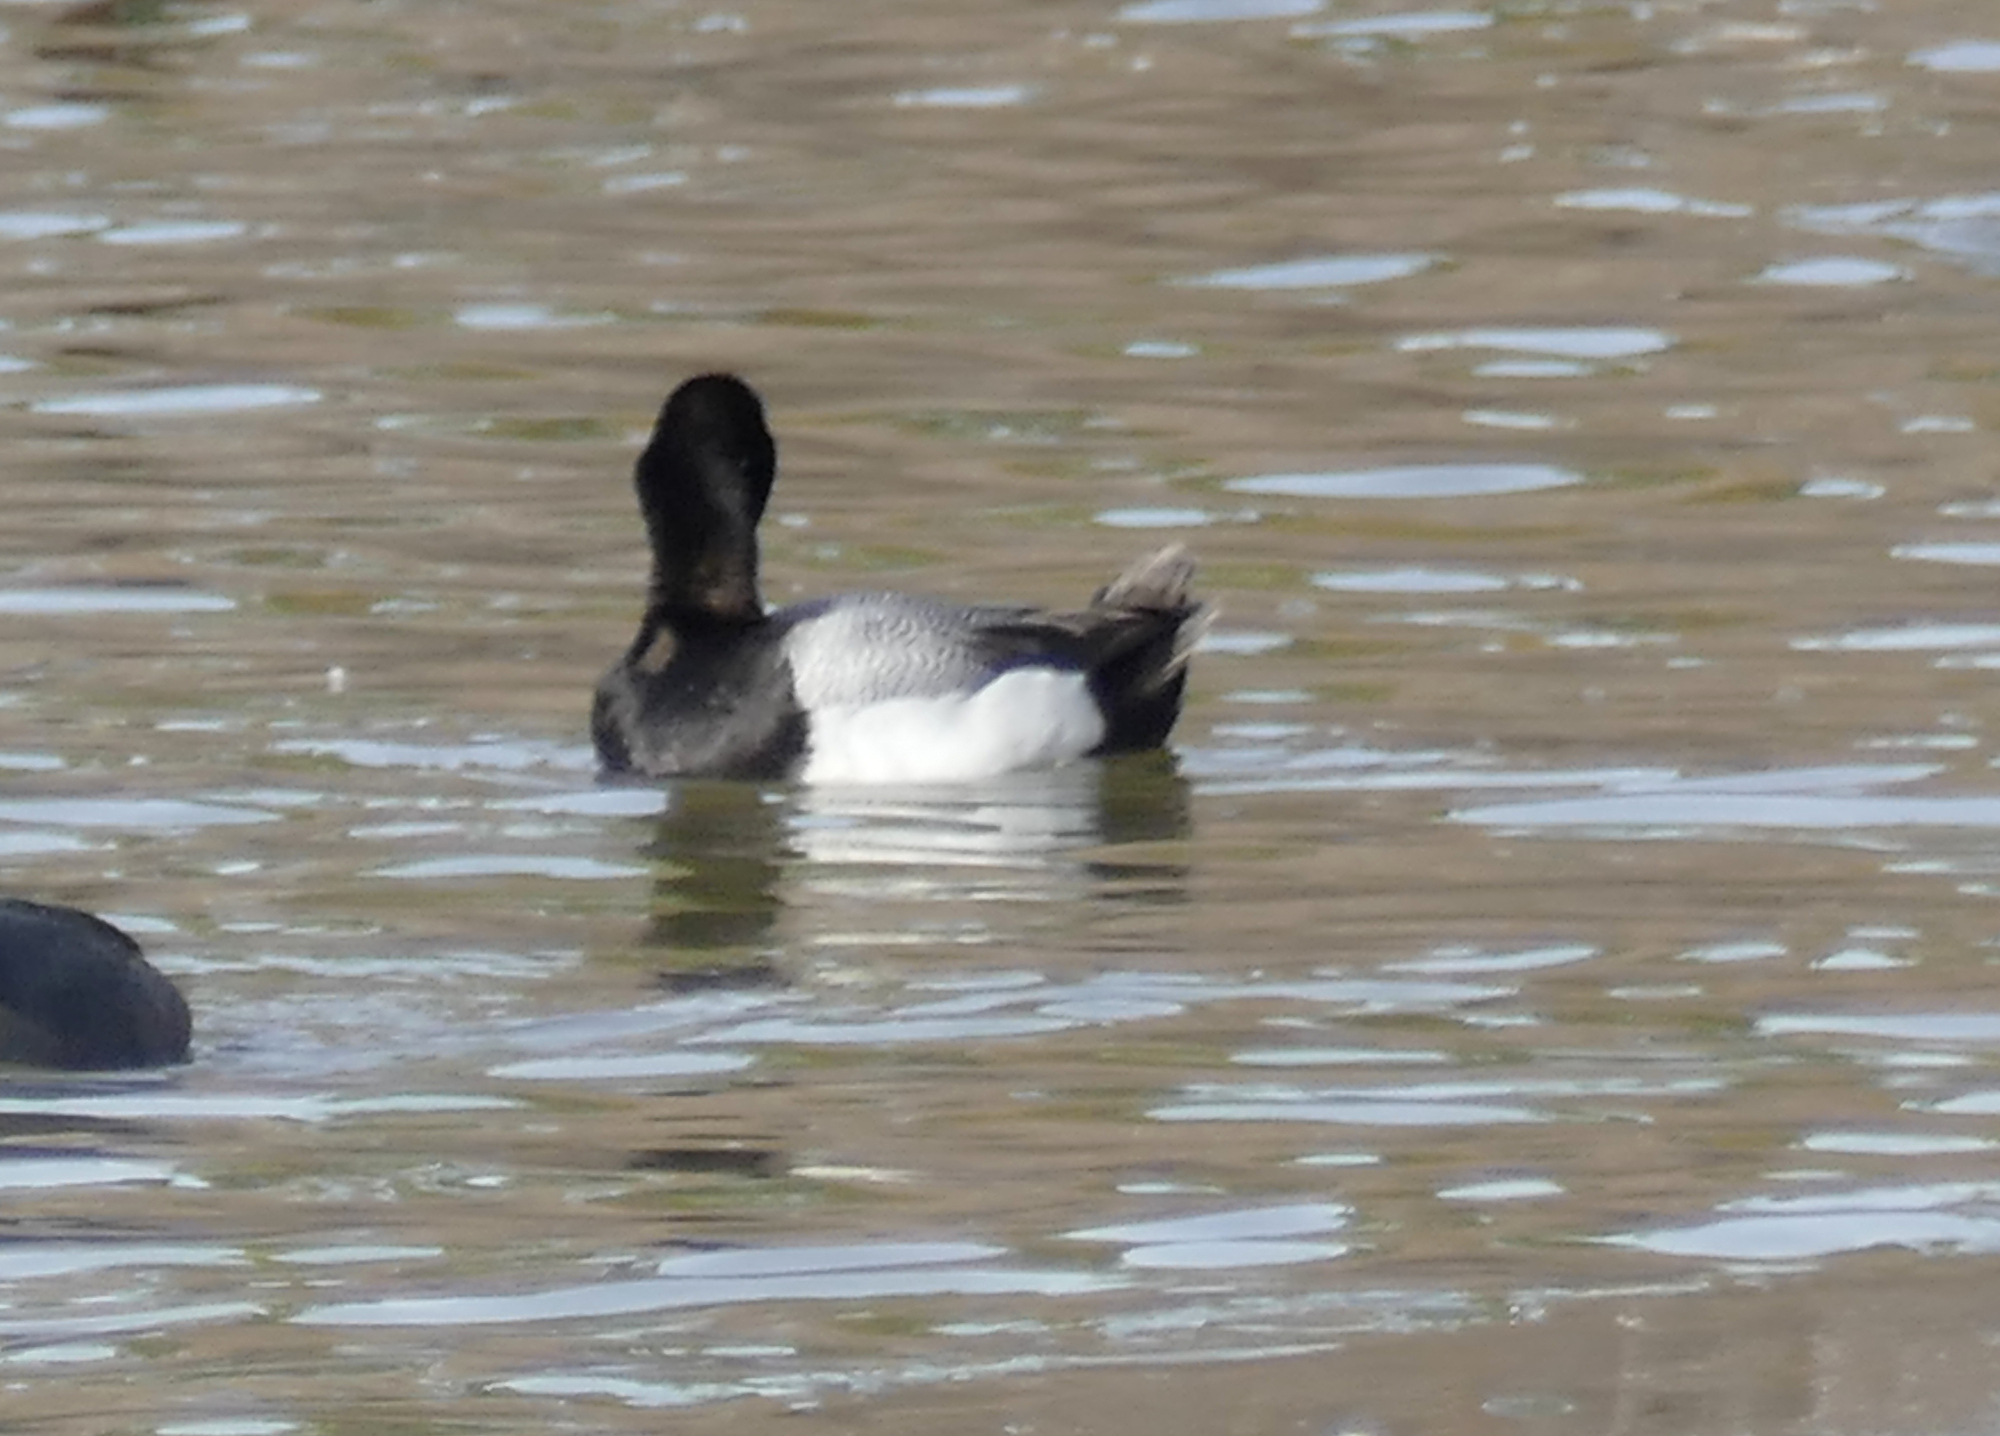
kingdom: Animalia
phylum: Chordata
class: Aves
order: Anseriformes
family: Anatidae
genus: Aythya
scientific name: Aythya affinis
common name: Lesser scaup
